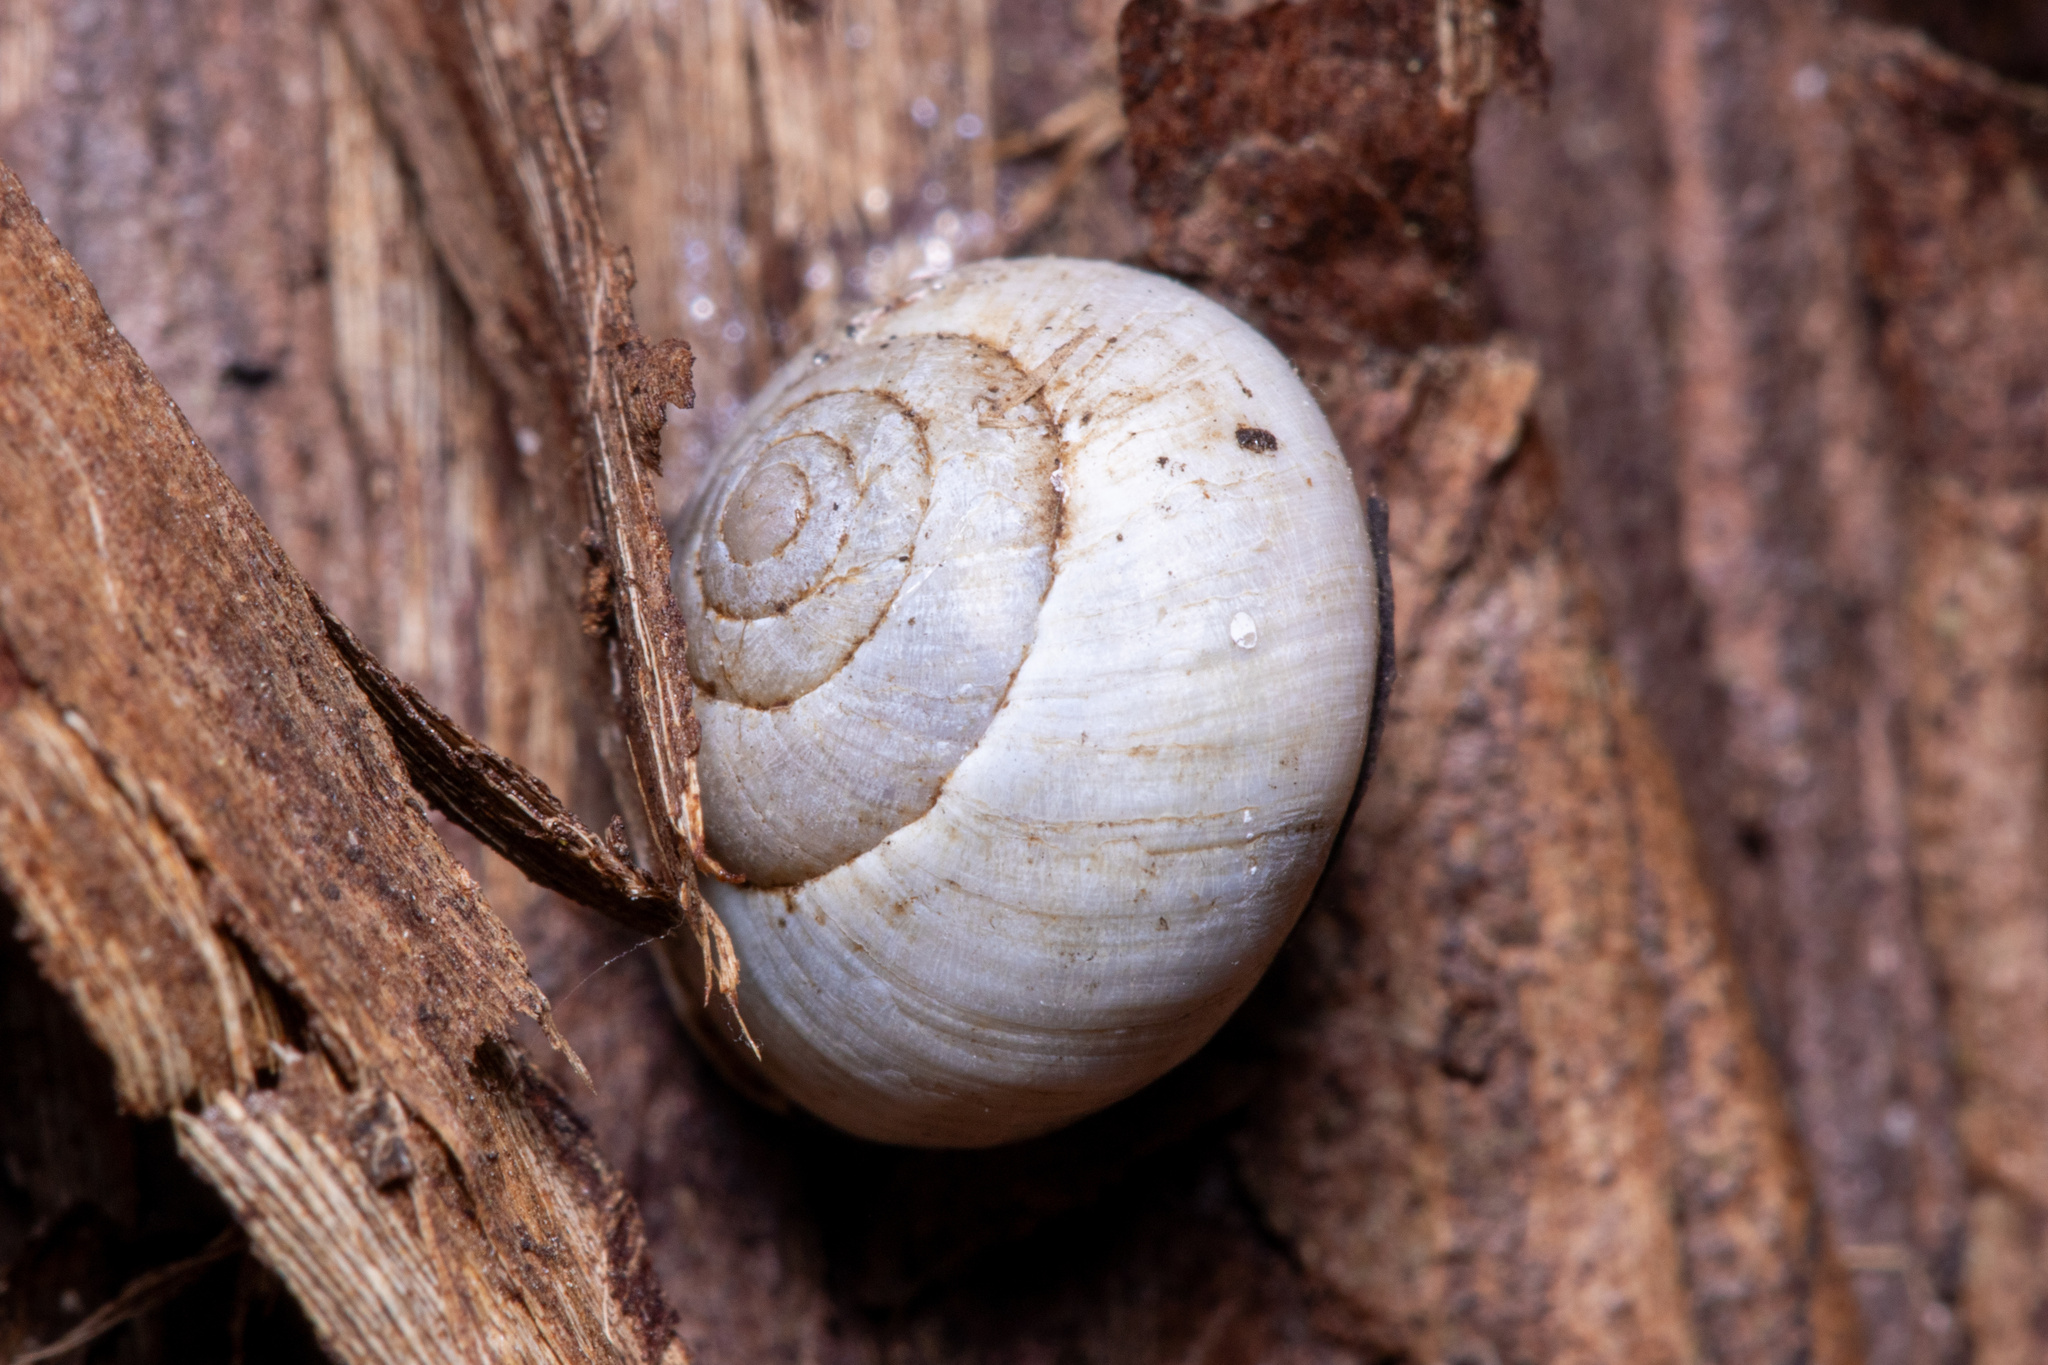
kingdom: Animalia
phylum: Mollusca
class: Gastropoda
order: Cycloneritida
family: Helicinidae
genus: Helicina
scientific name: Helicina orbiculata
